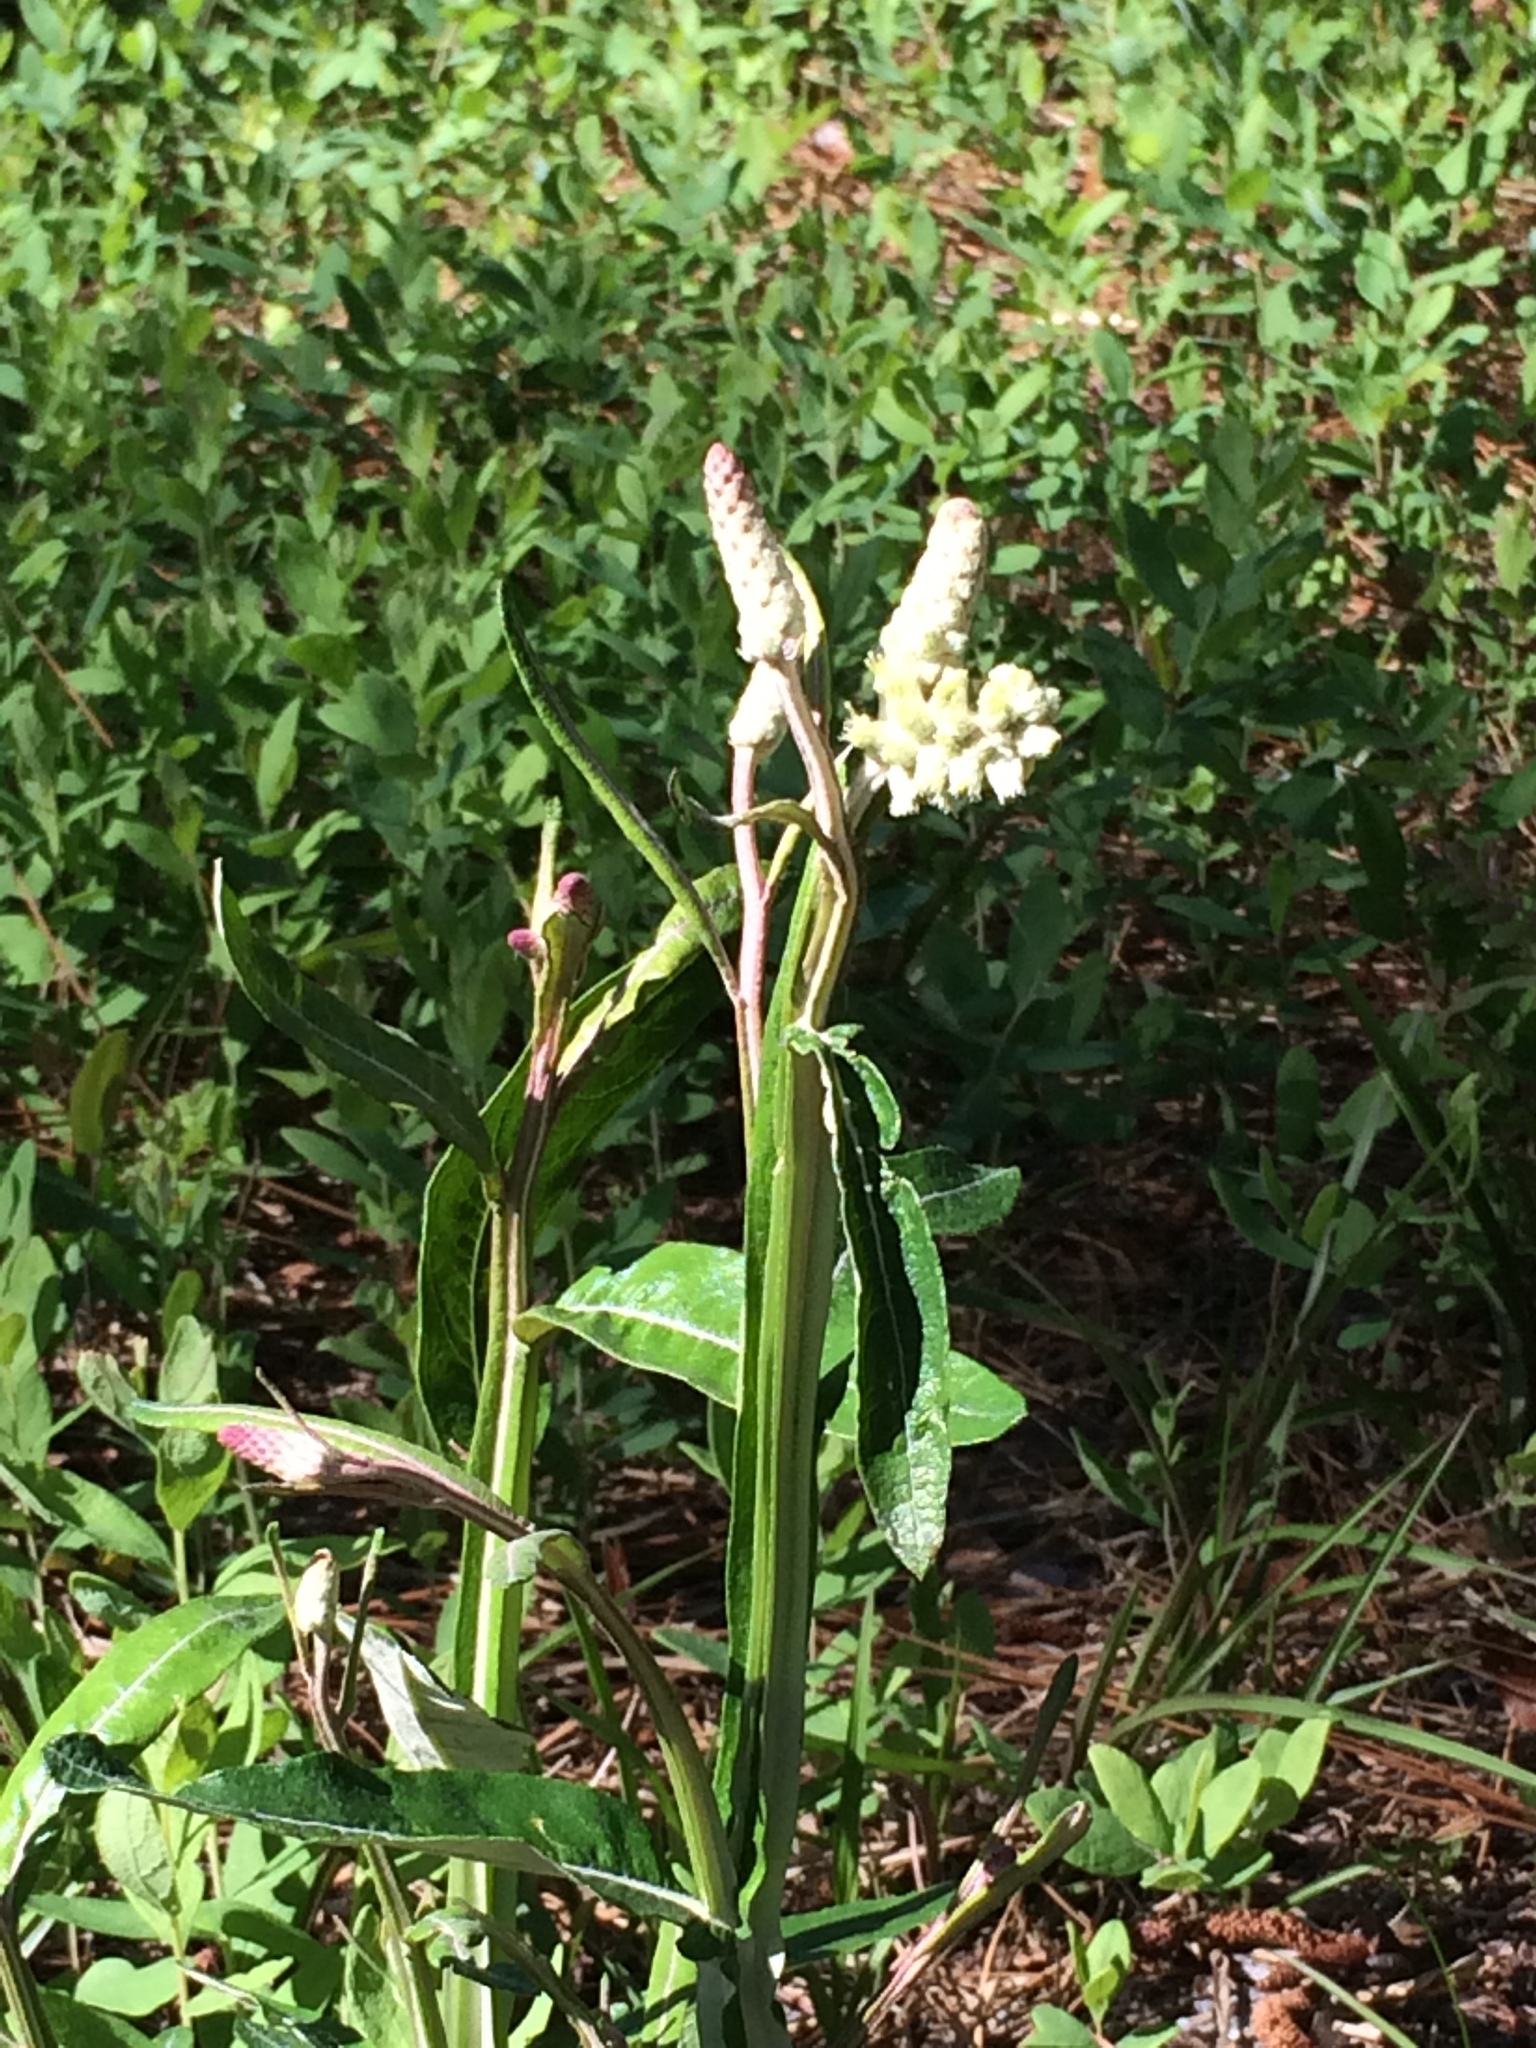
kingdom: Plantae
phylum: Tracheophyta
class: Magnoliopsida
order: Asterales
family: Asteraceae
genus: Pterocaulon
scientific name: Pterocaulon pycnostachyum
